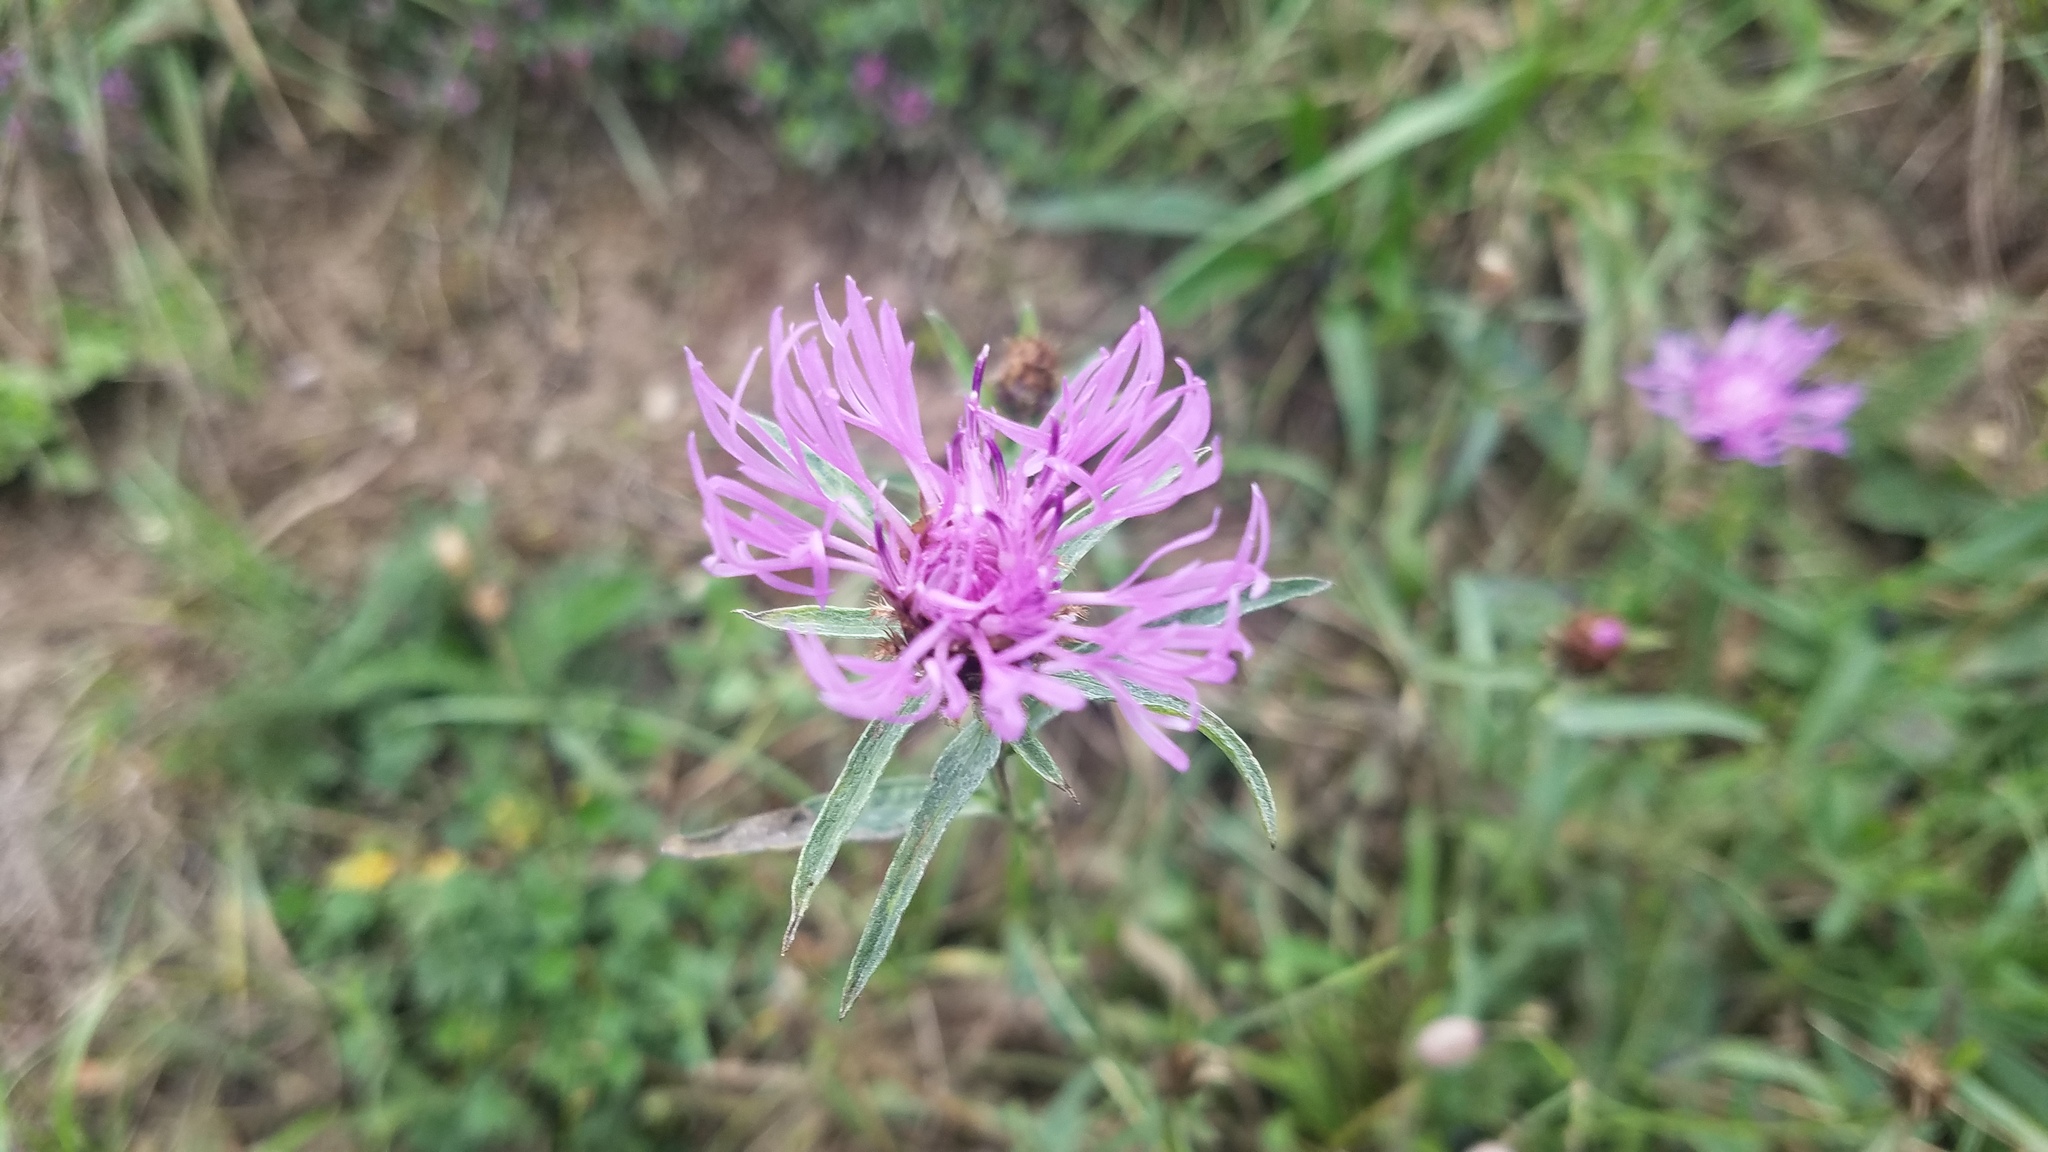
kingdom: Plantae
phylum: Tracheophyta
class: Magnoliopsida
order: Asterales
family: Asteraceae
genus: Centaurea
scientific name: Centaurea jacea
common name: Brown knapweed
